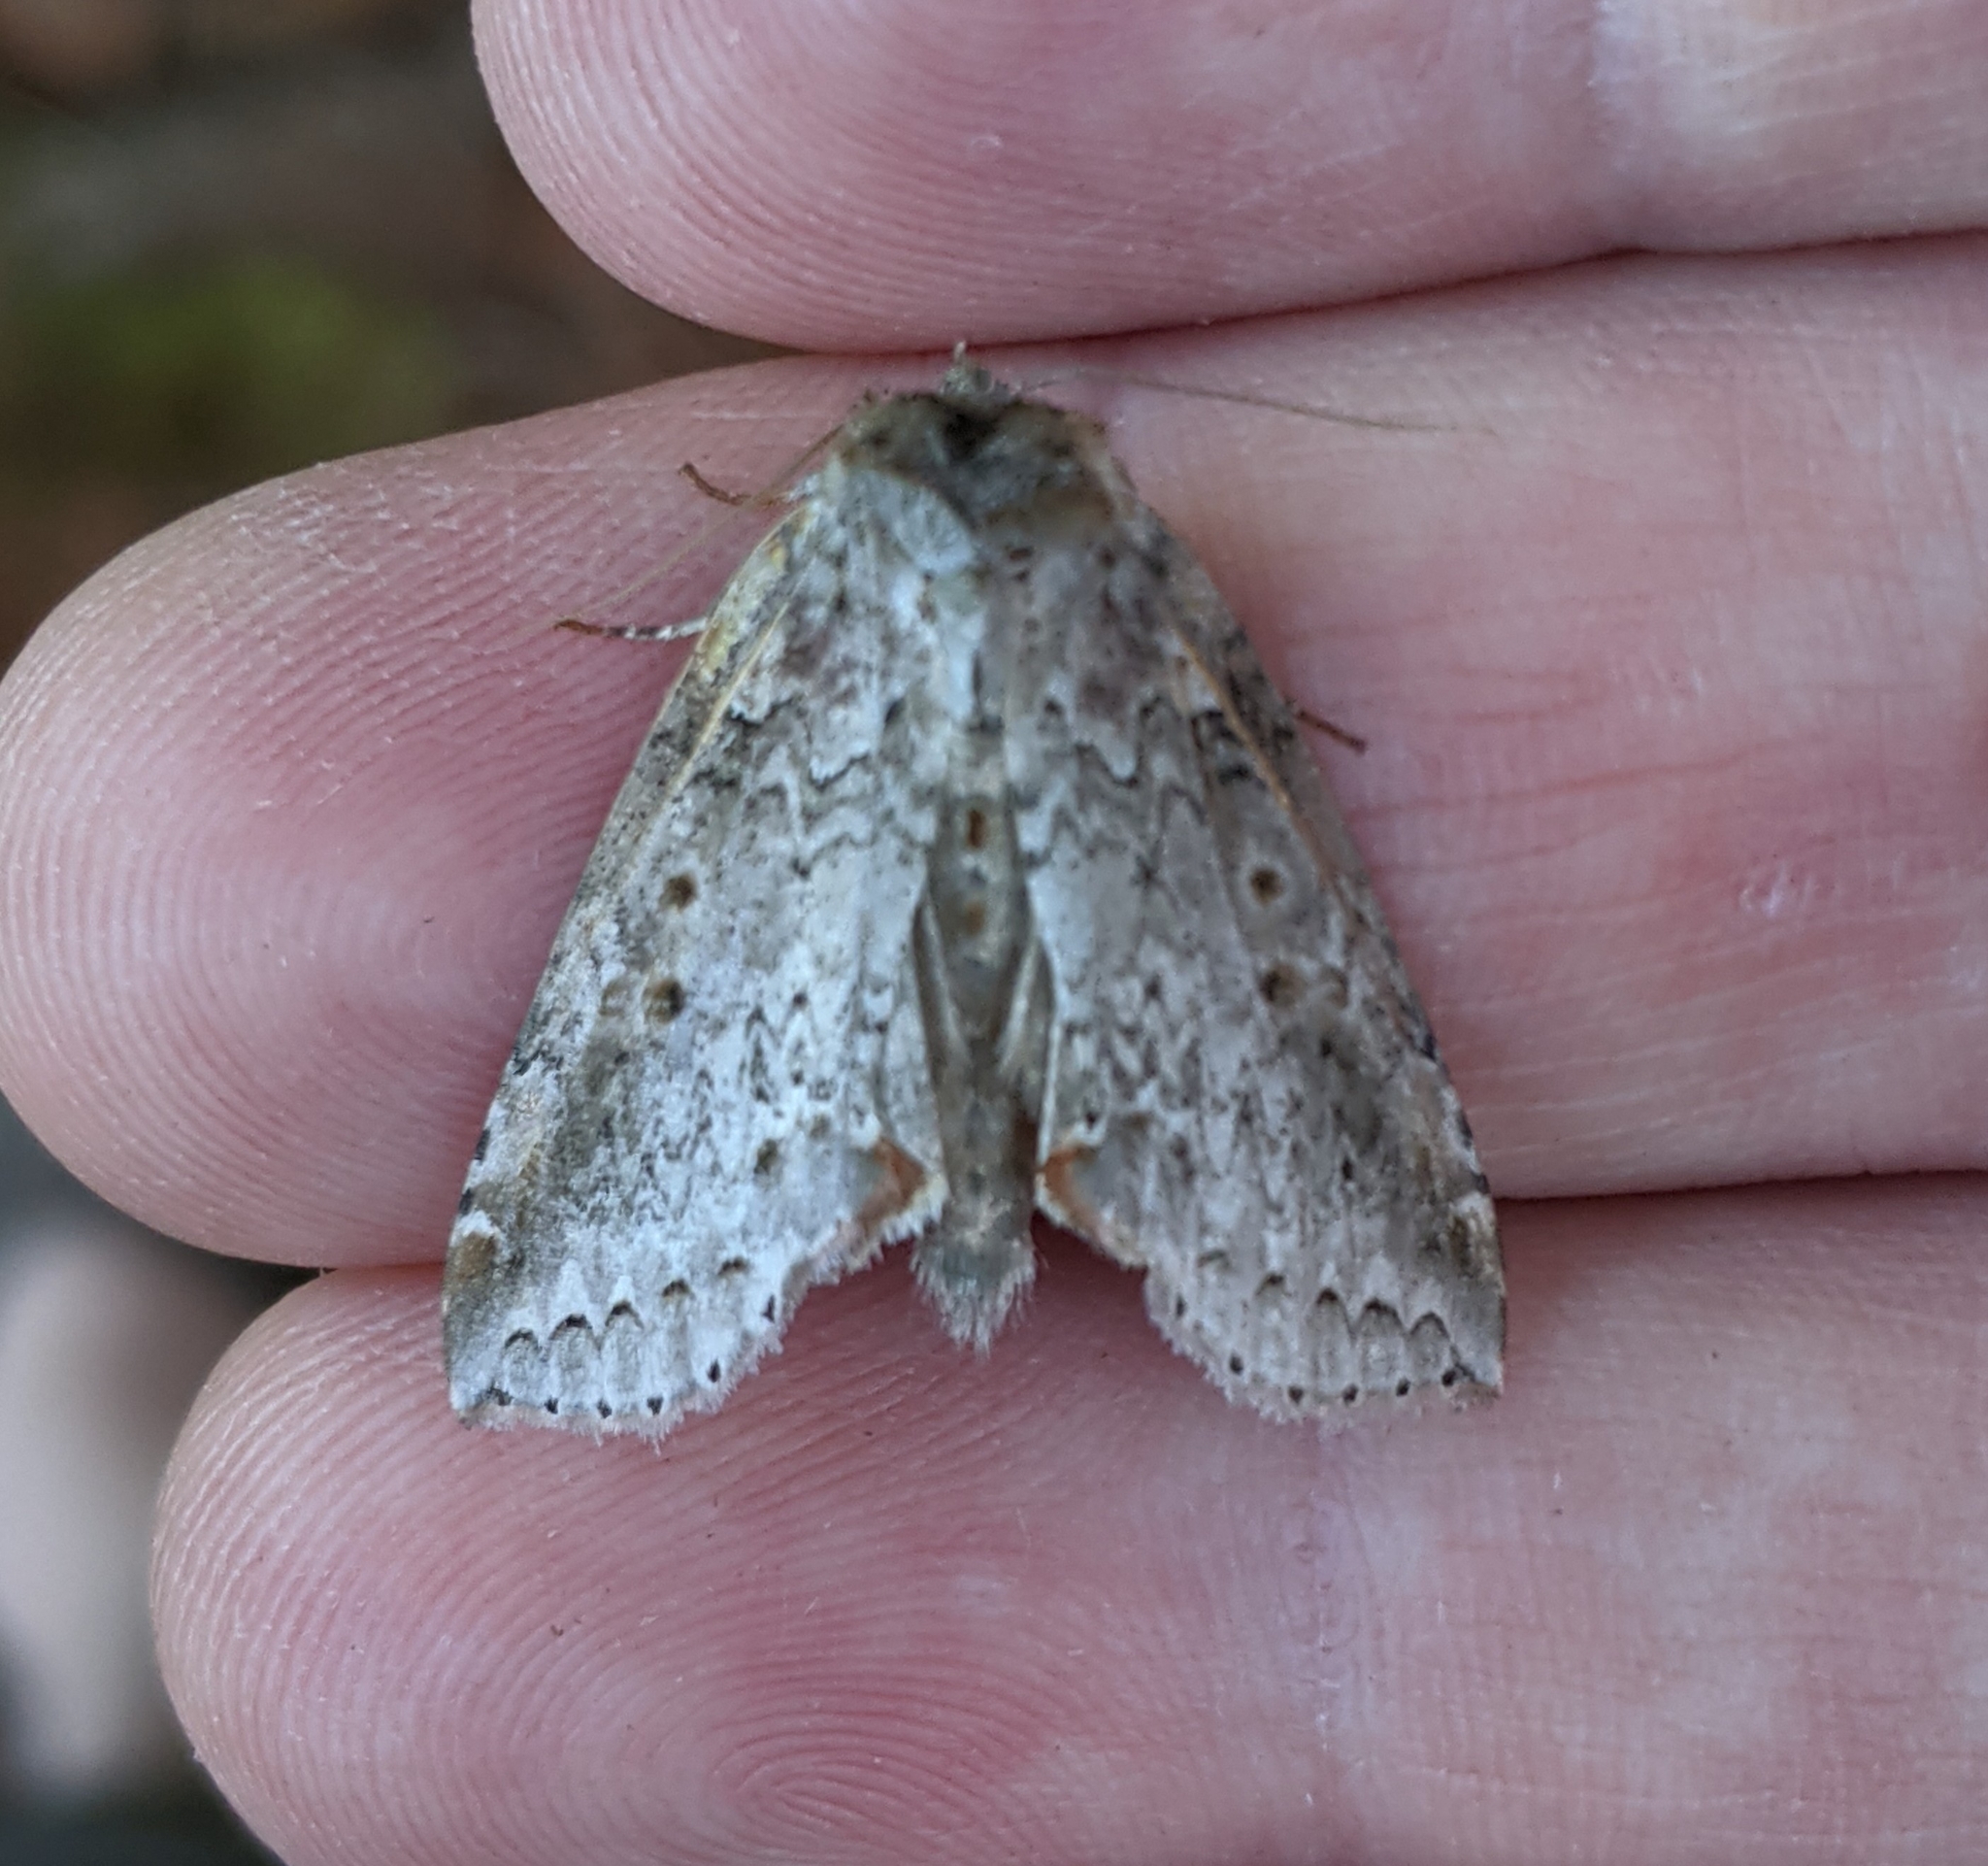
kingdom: Animalia
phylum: Arthropoda
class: Insecta
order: Lepidoptera
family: Drepanidae
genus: Pseudothyatira
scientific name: Pseudothyatira cymatophoroides
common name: Tufted thyatirid moth
